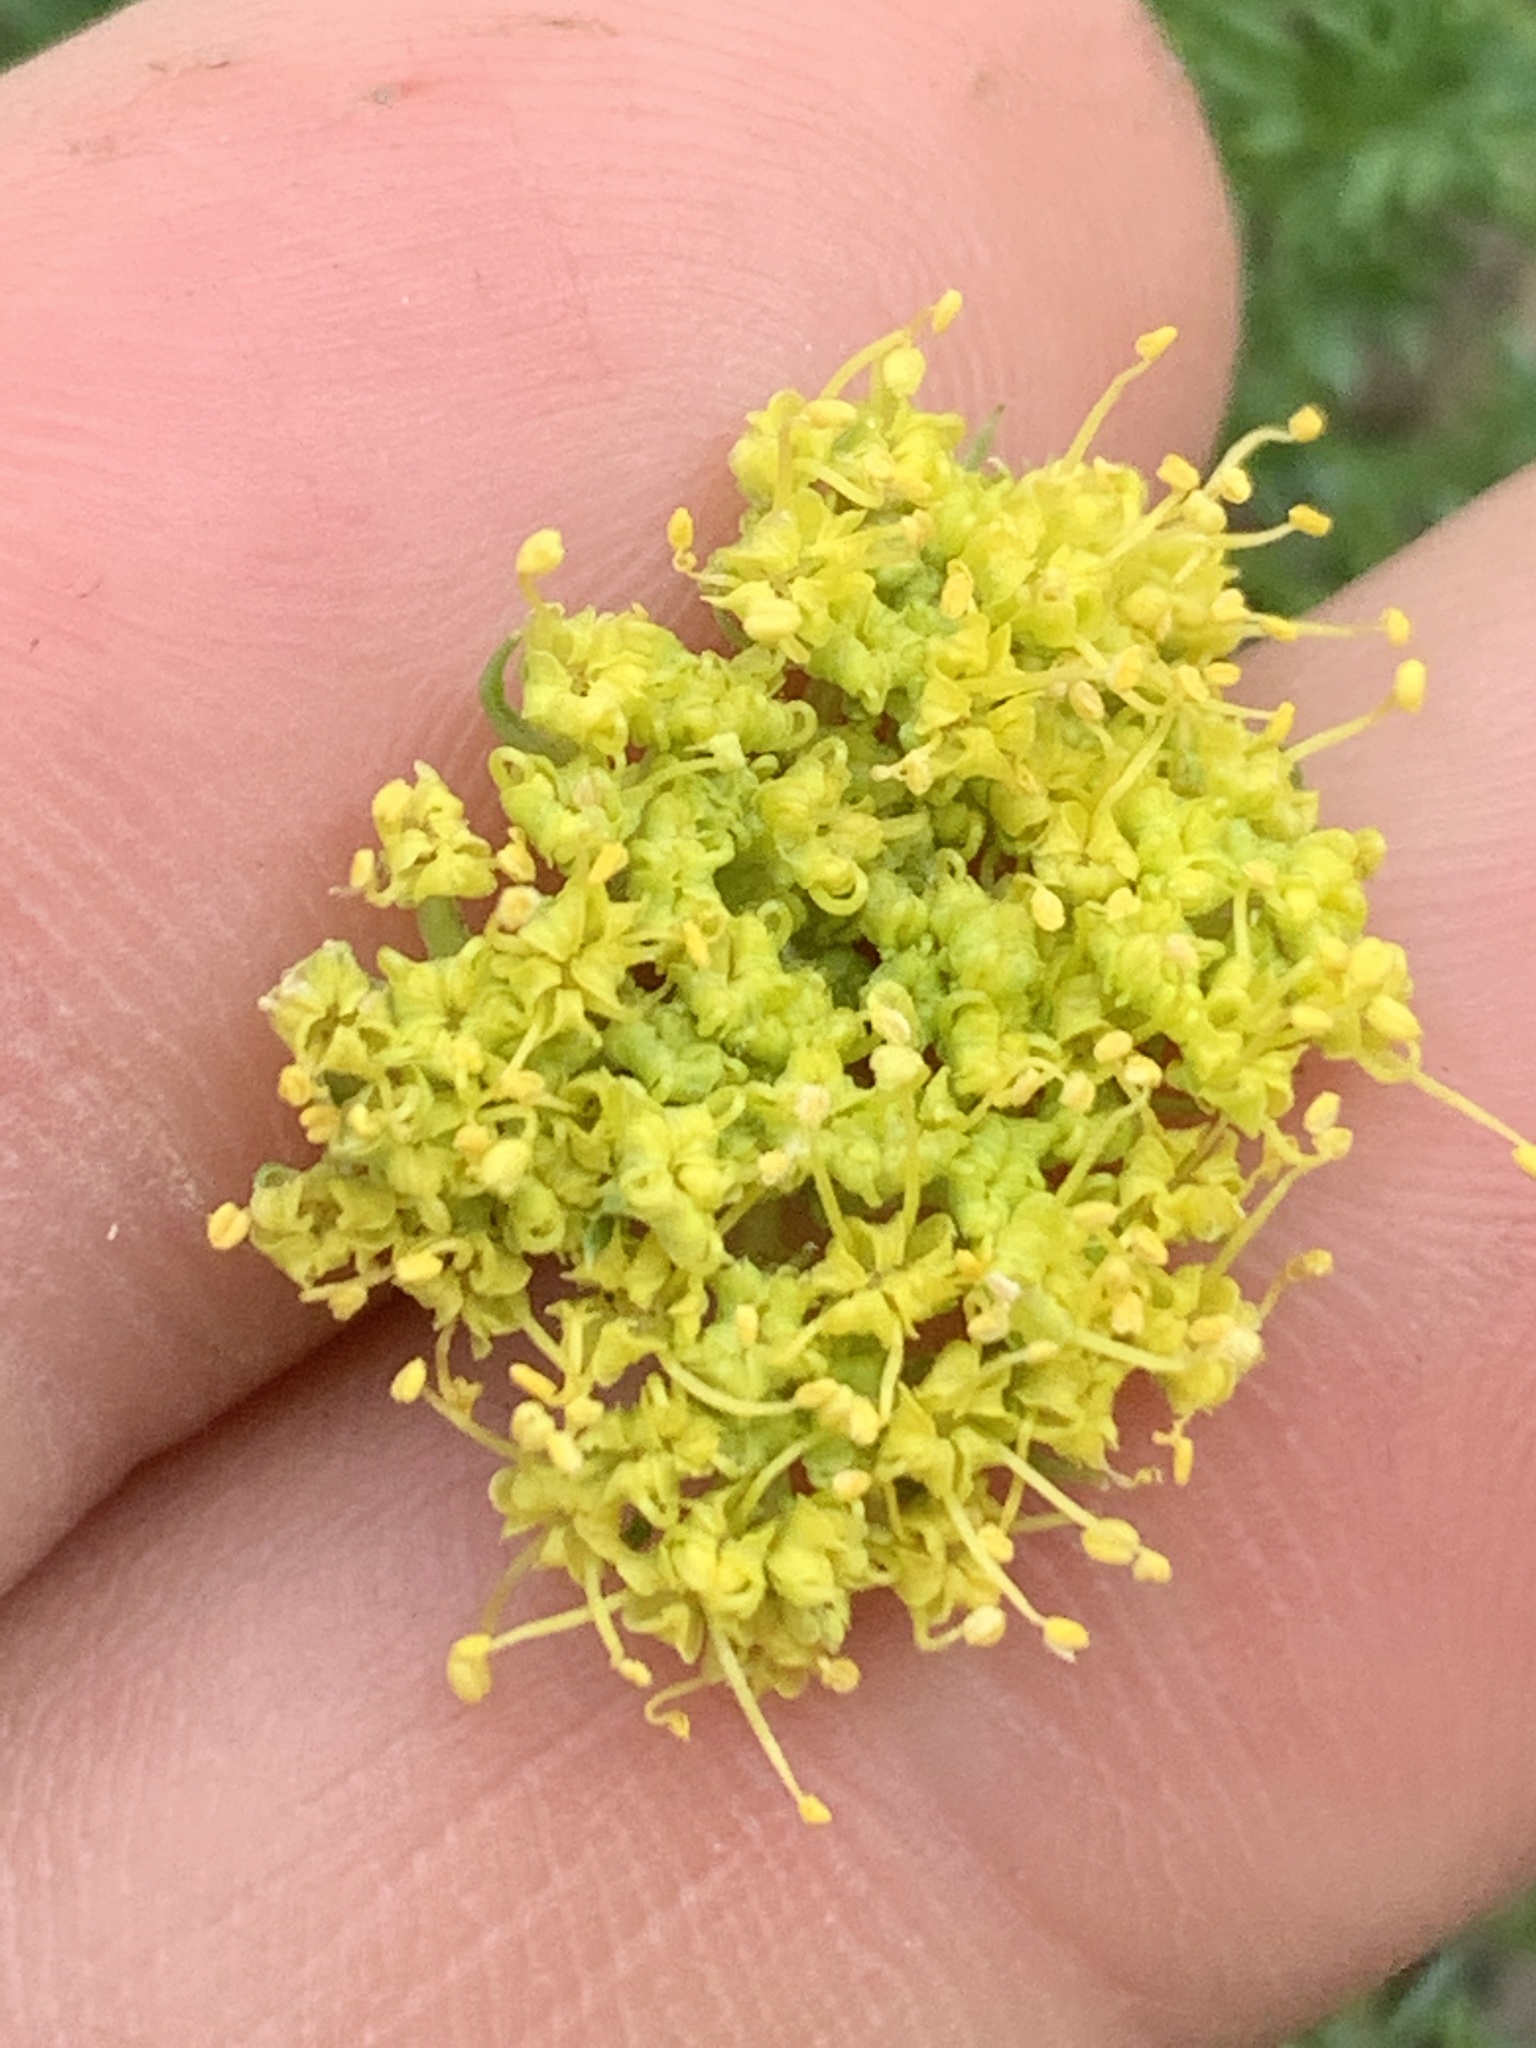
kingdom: Plantae
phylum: Tracheophyta
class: Magnoliopsida
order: Apiales
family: Apiaceae
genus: Lomatium
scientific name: Lomatium papilioniferum
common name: Butterfly lomatium
